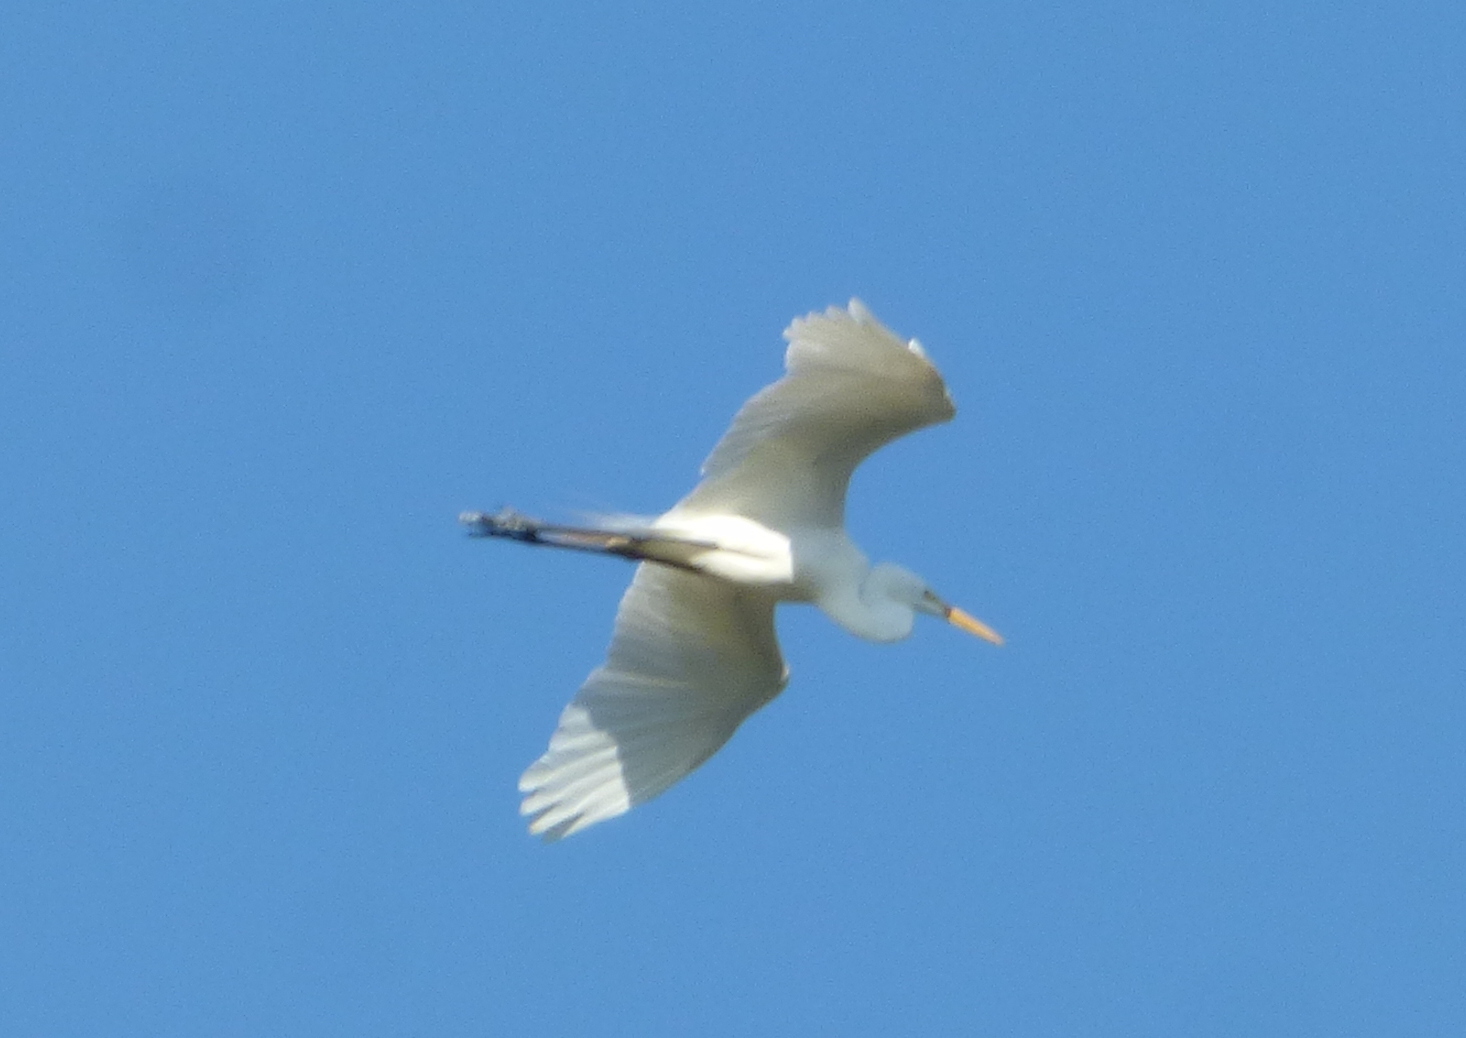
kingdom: Animalia
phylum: Chordata
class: Aves
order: Pelecaniformes
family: Ardeidae
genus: Ardea
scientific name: Ardea alba
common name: Great egret
